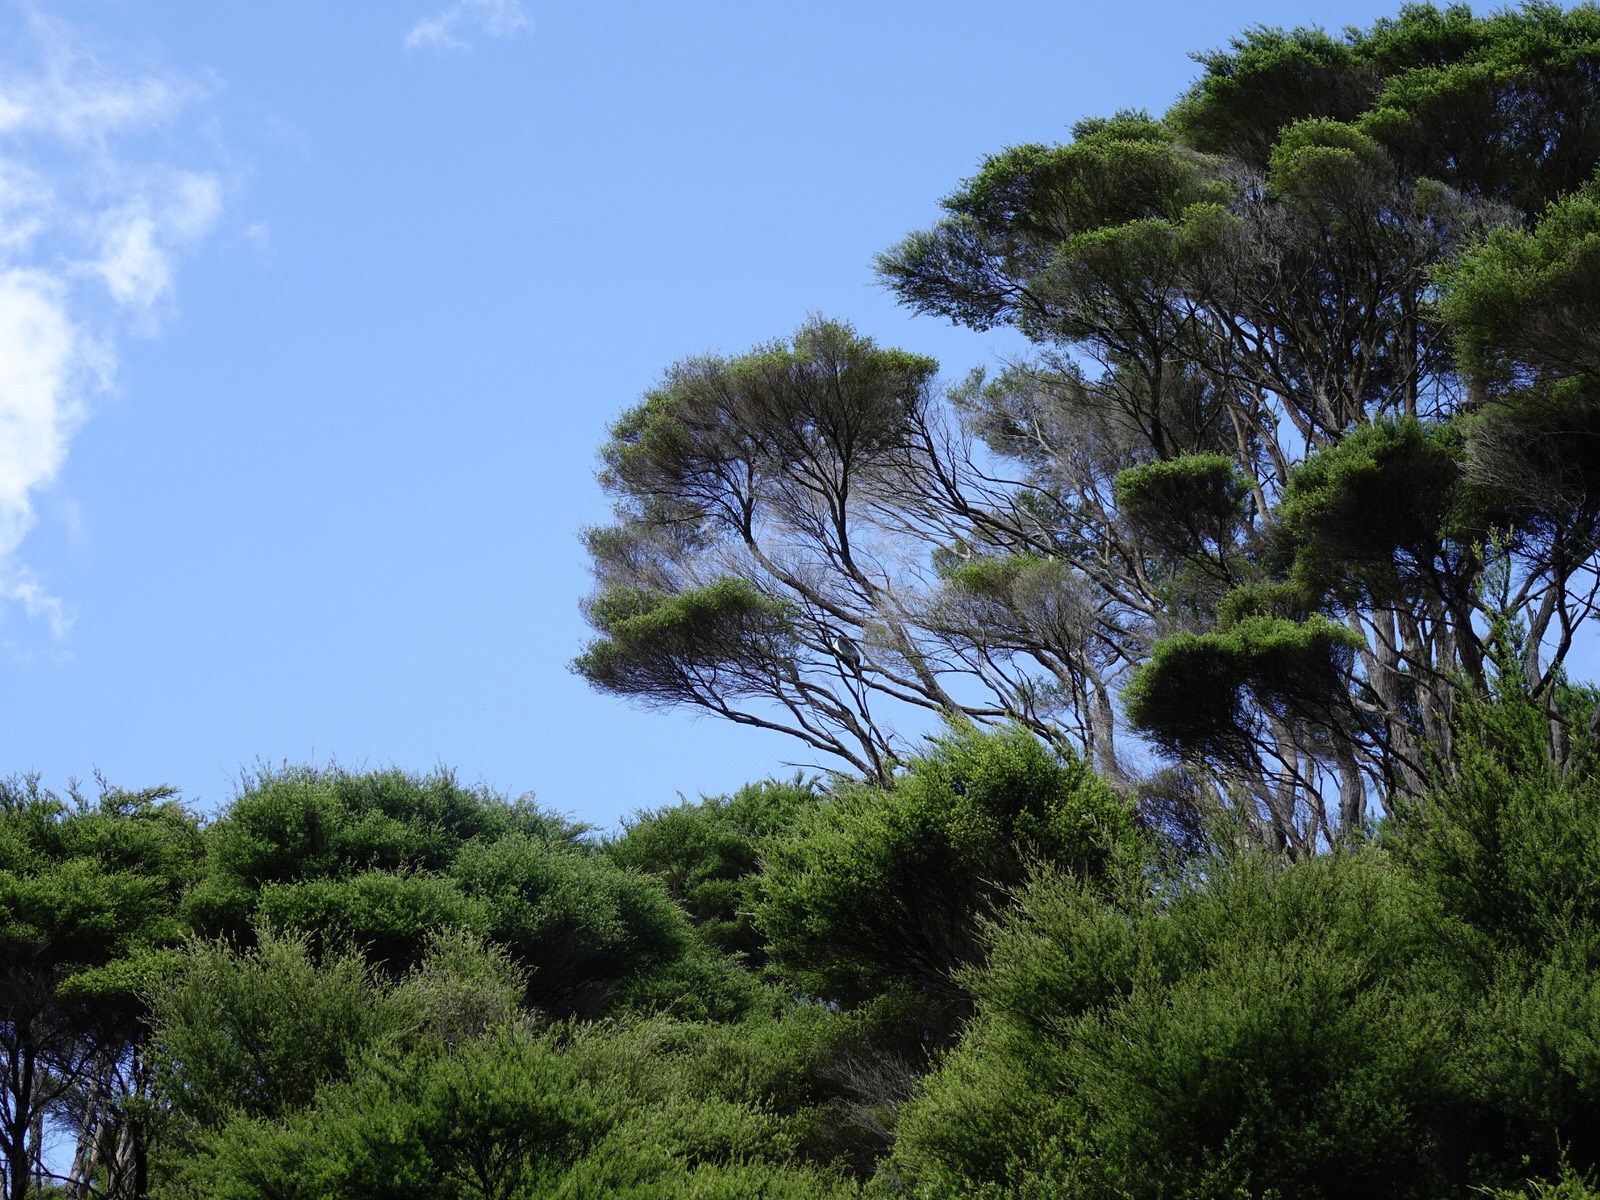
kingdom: Animalia
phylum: Chordata
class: Aves
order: Columbiformes
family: Columbidae
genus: Hemiphaga
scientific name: Hemiphaga novaeseelandiae
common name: New zealand pigeon
